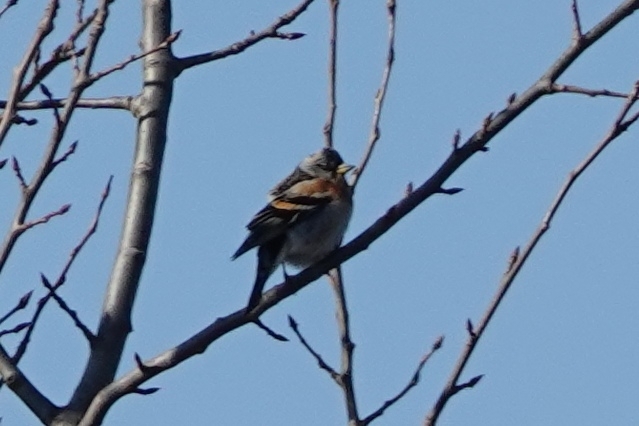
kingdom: Animalia
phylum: Chordata
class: Aves
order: Passeriformes
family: Fringillidae
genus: Fringilla
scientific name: Fringilla montifringilla
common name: Brambling
